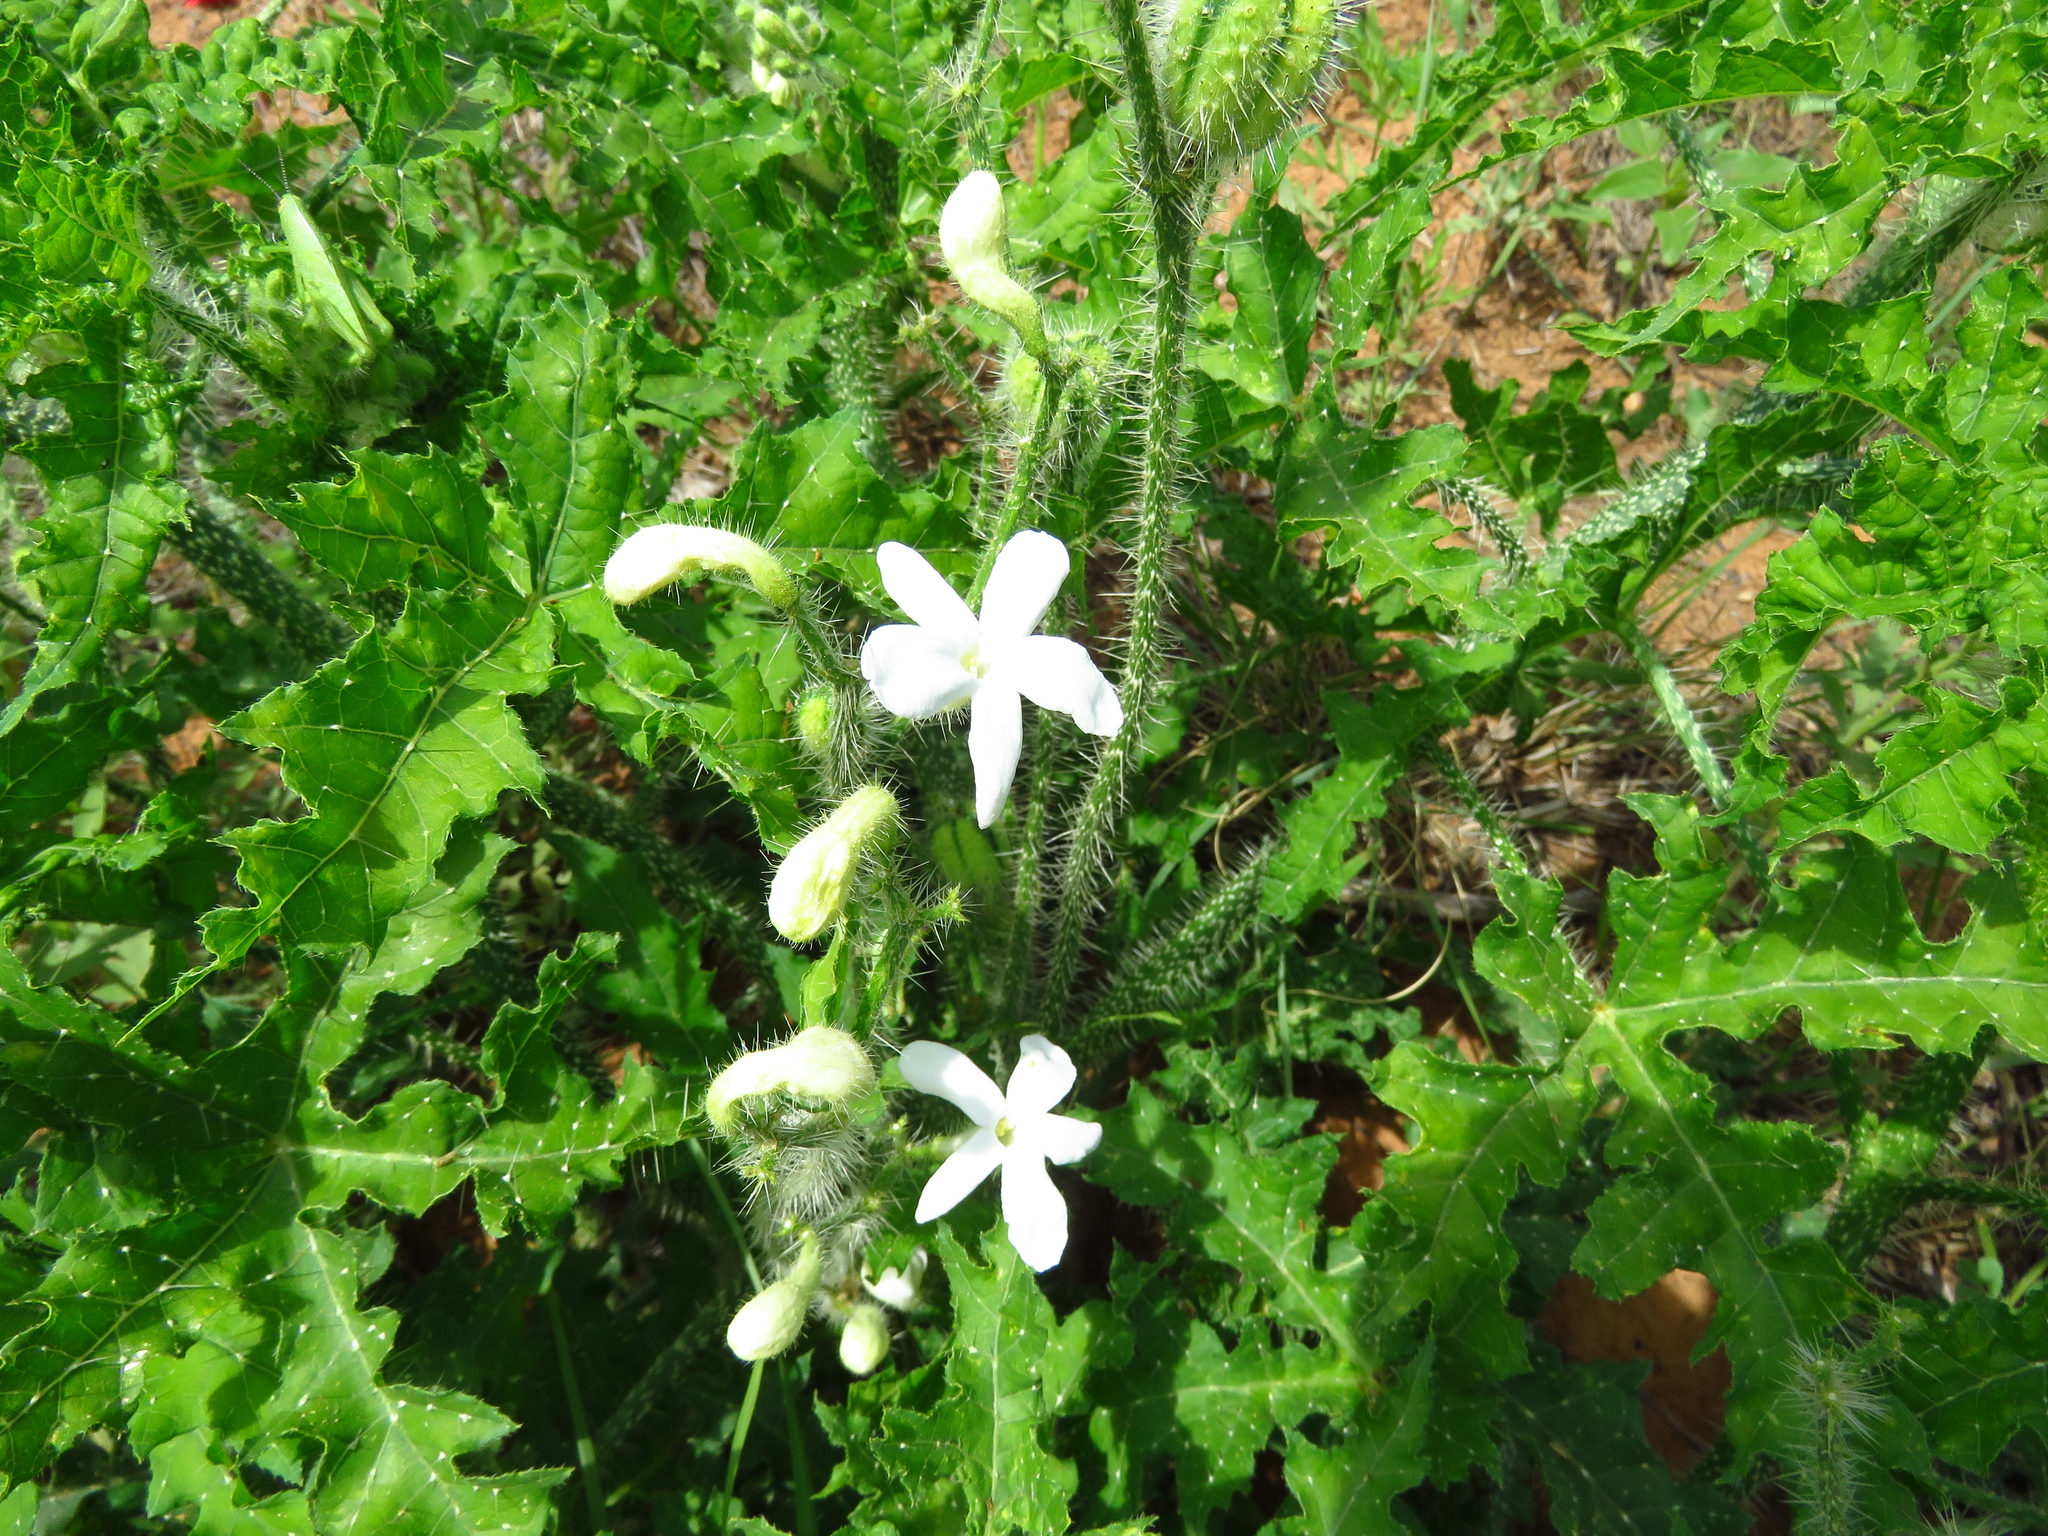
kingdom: Plantae
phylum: Tracheophyta
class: Magnoliopsida
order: Malpighiales
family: Euphorbiaceae
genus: Cnidoscolus
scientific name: Cnidoscolus texanus
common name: Texas bull-nettle
